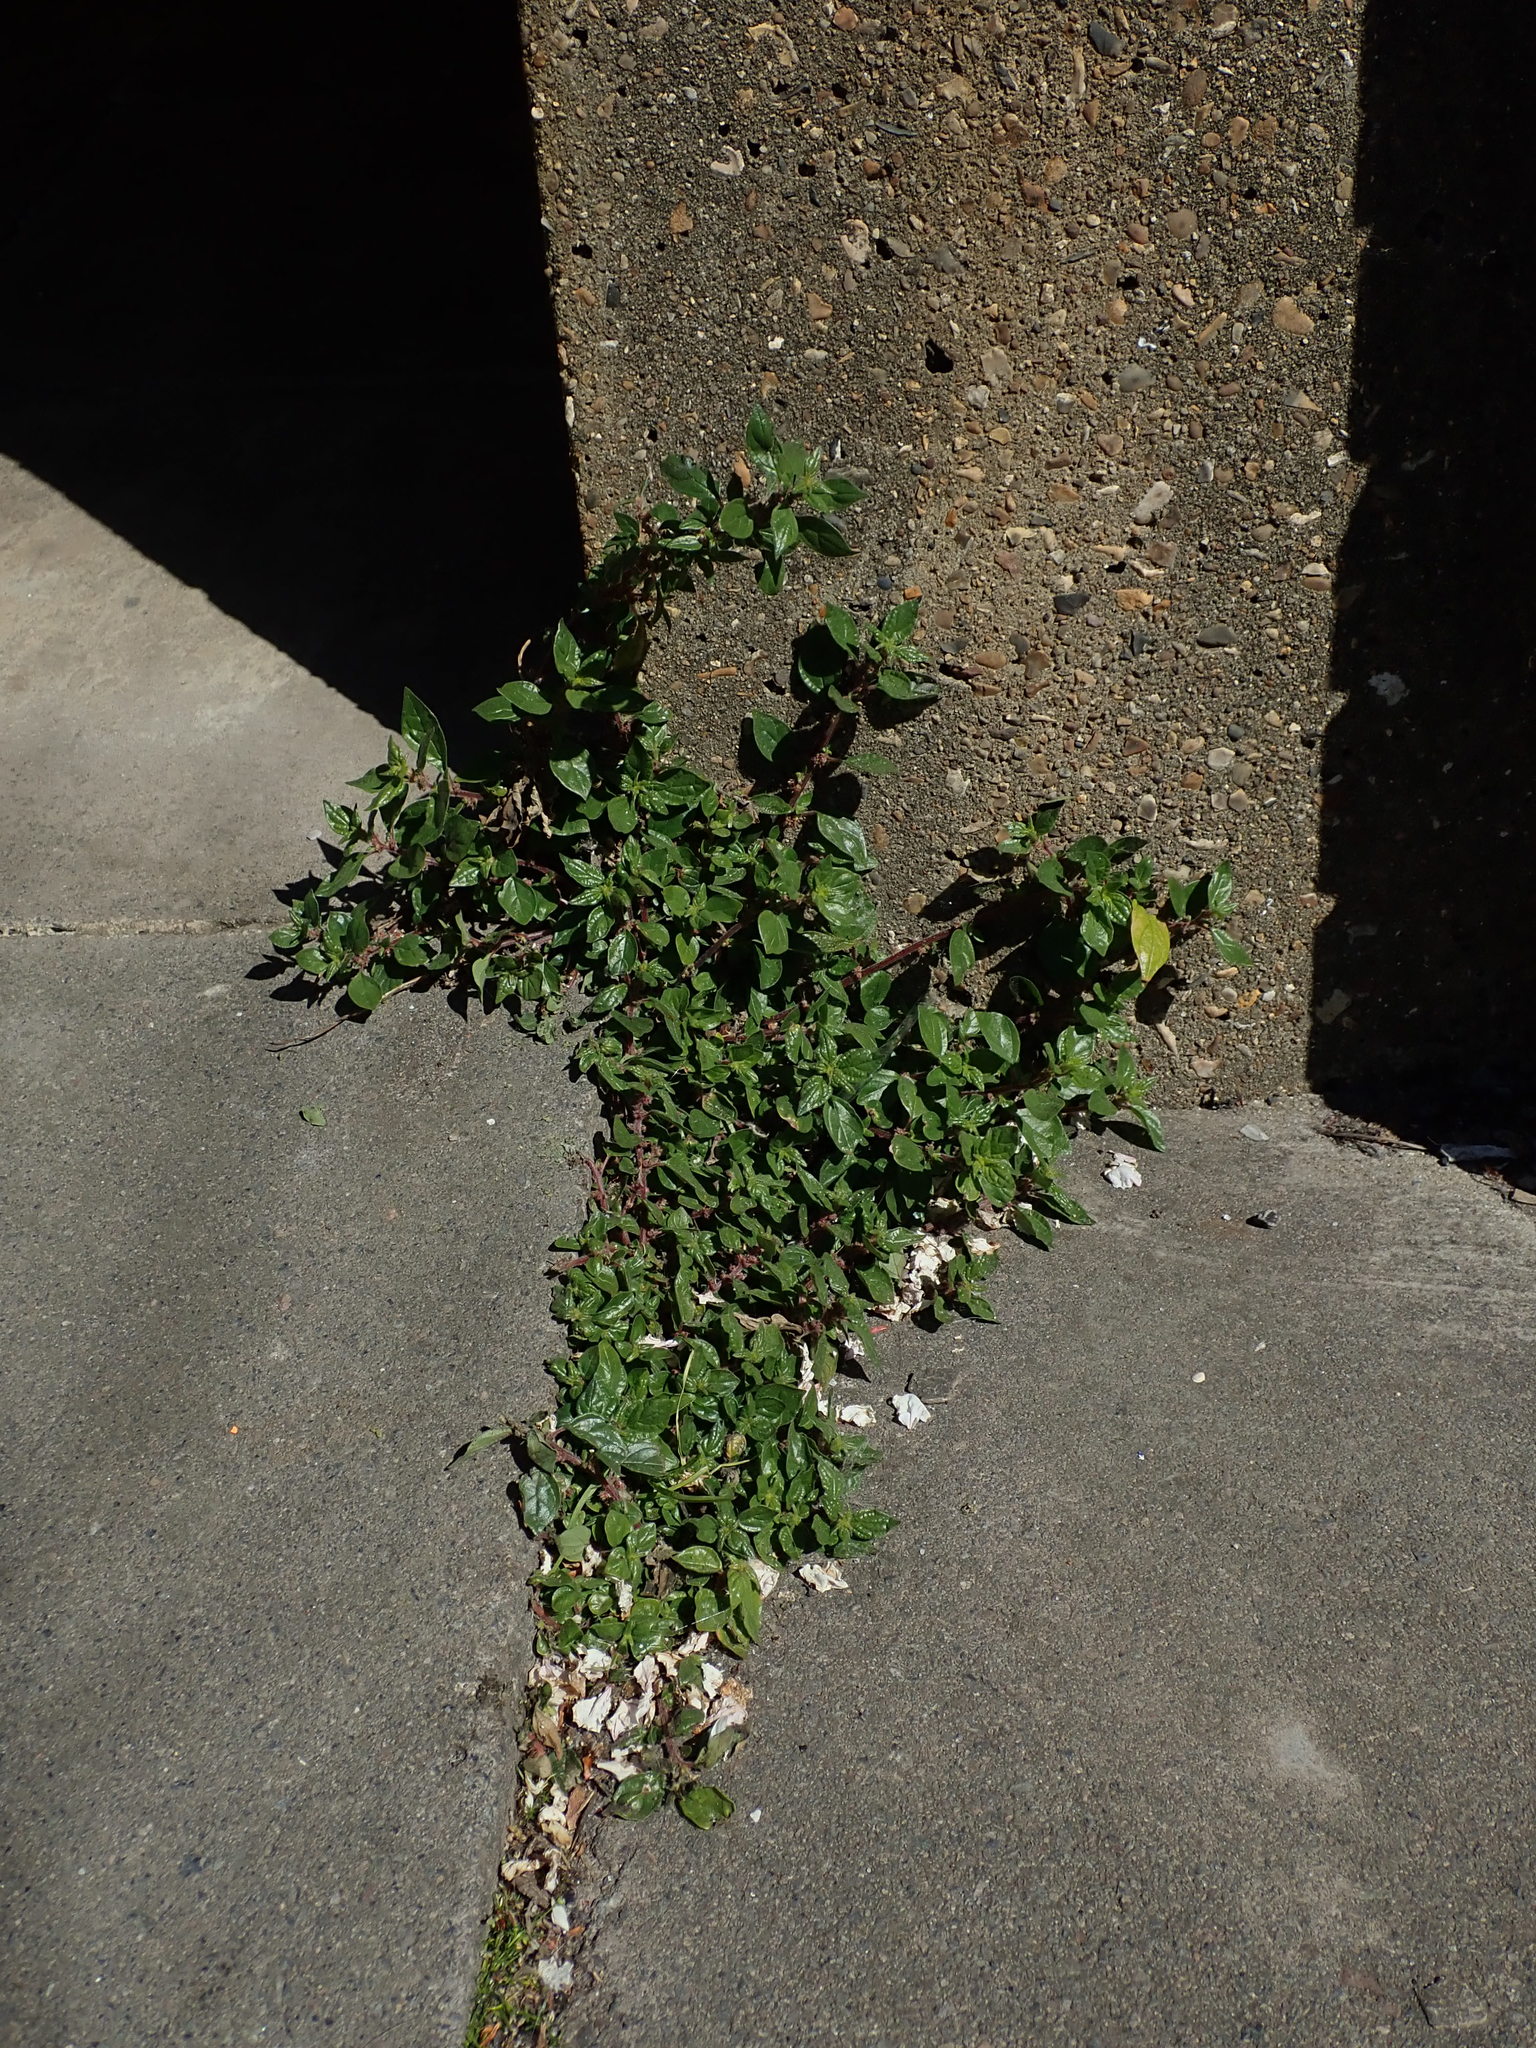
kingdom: Plantae
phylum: Tracheophyta
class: Magnoliopsida
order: Rosales
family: Urticaceae
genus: Parietaria
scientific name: Parietaria judaica
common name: Pellitory-of-the-wall
